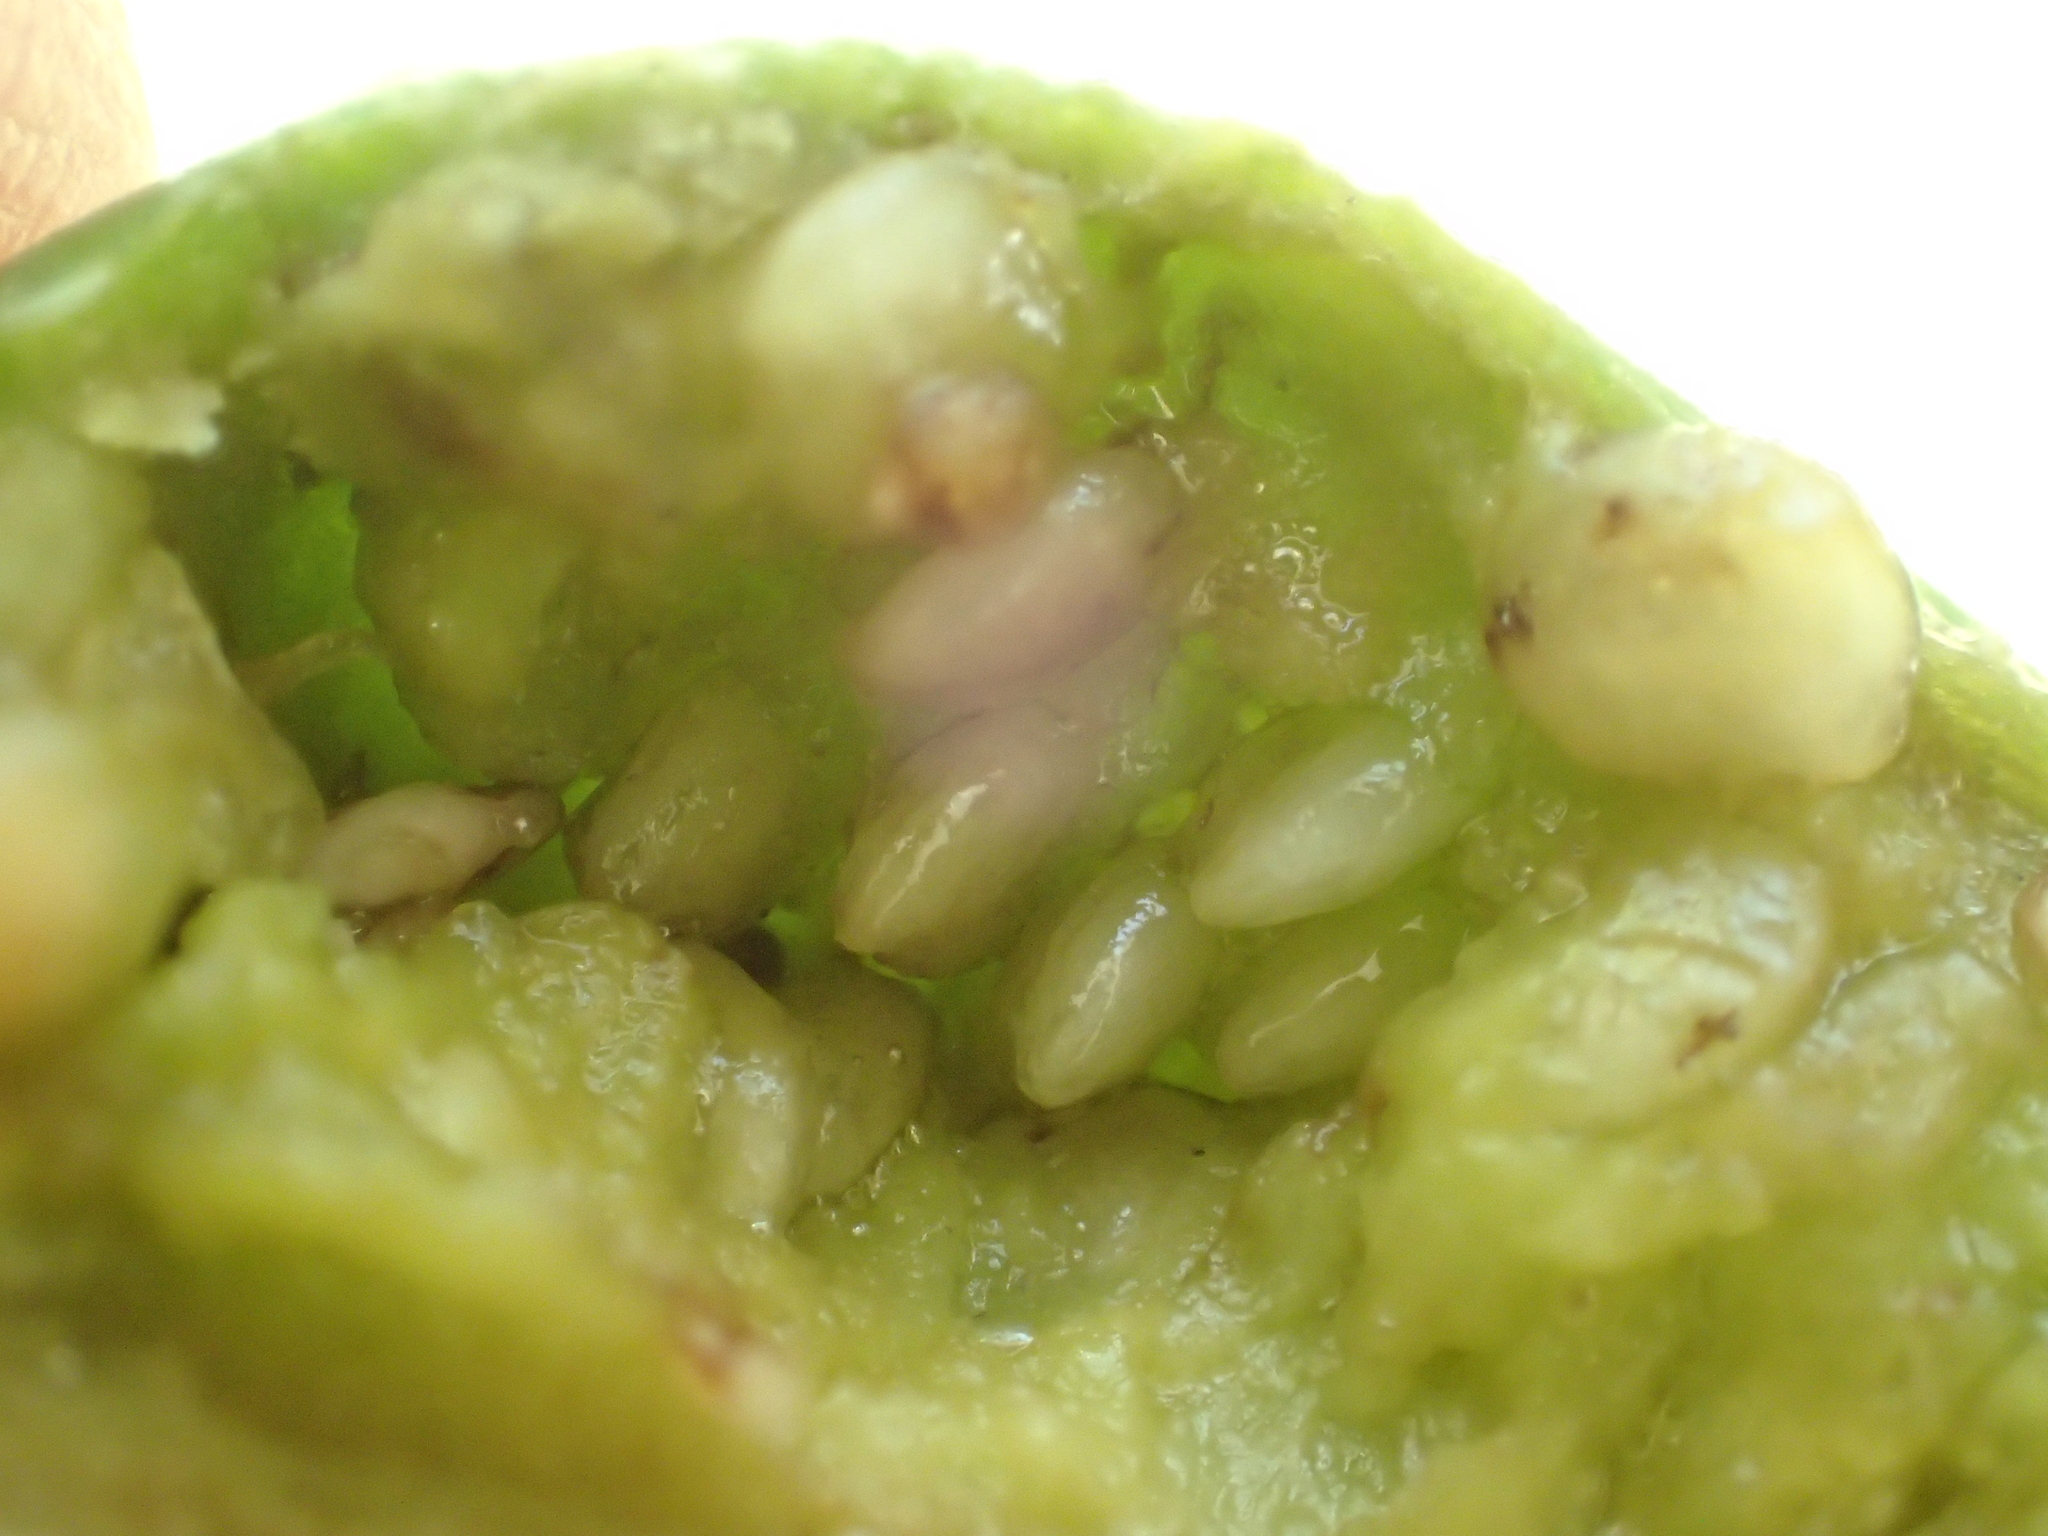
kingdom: Plantae
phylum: Tracheophyta
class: Magnoliopsida
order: Solanales
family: Solanaceae
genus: Solanum
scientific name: Solanum laciniatum
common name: Kangaroo-apple
